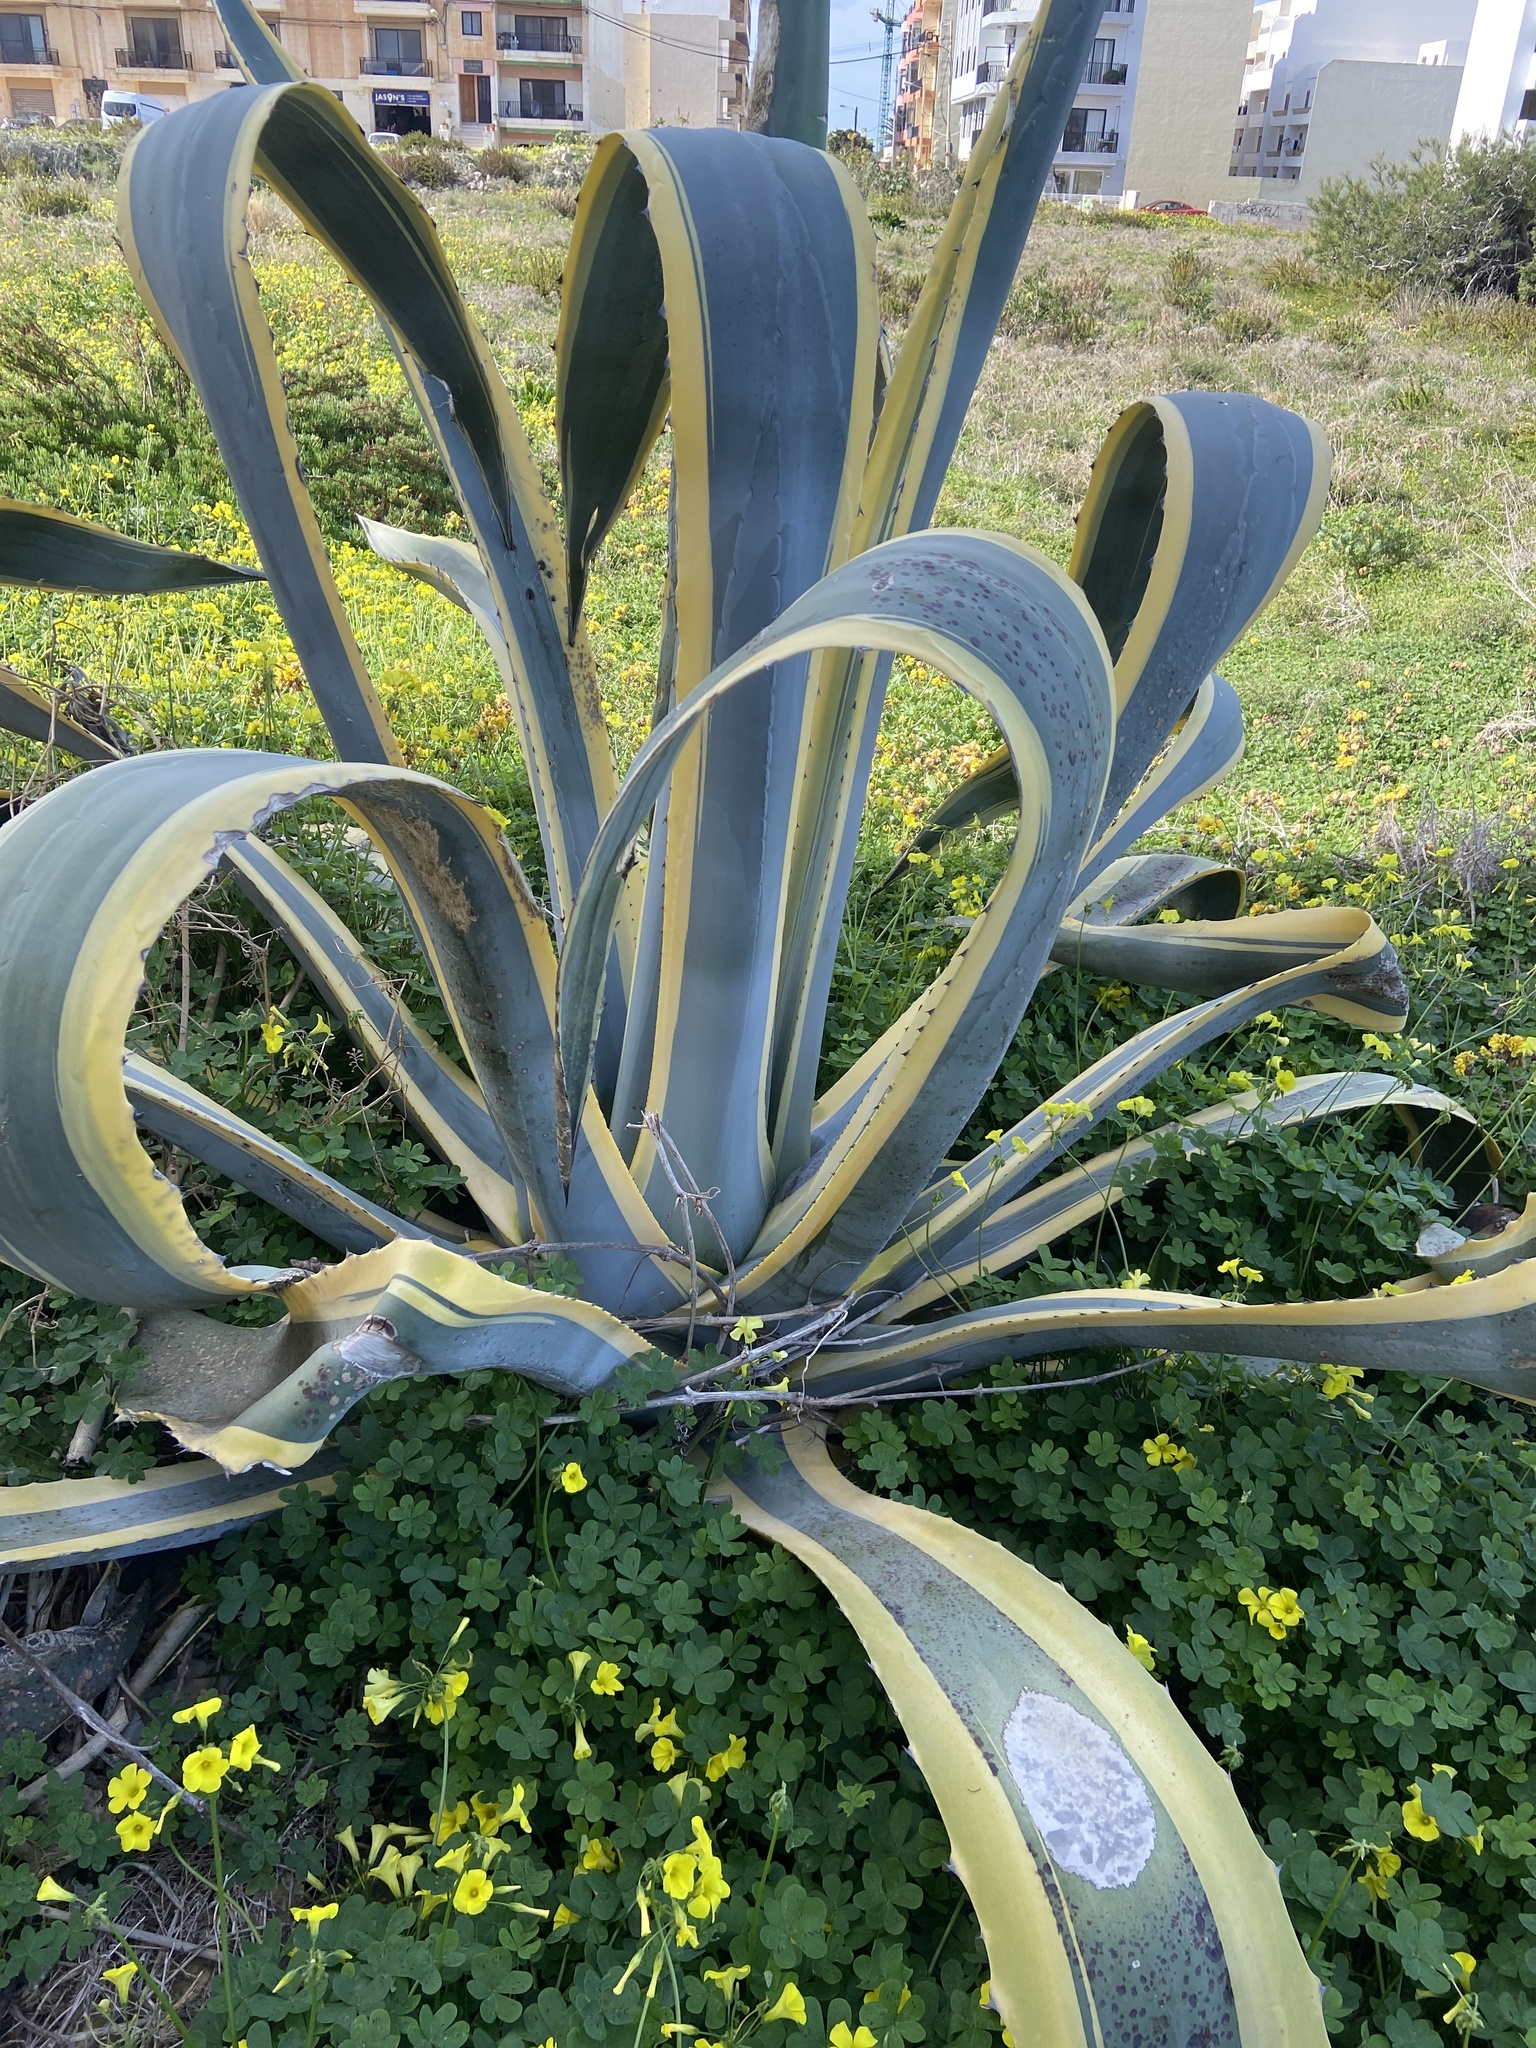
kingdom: Plantae
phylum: Tracheophyta
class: Liliopsida
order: Asparagales
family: Asparagaceae
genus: Agave
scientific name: Agave americana
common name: Centuryplant
